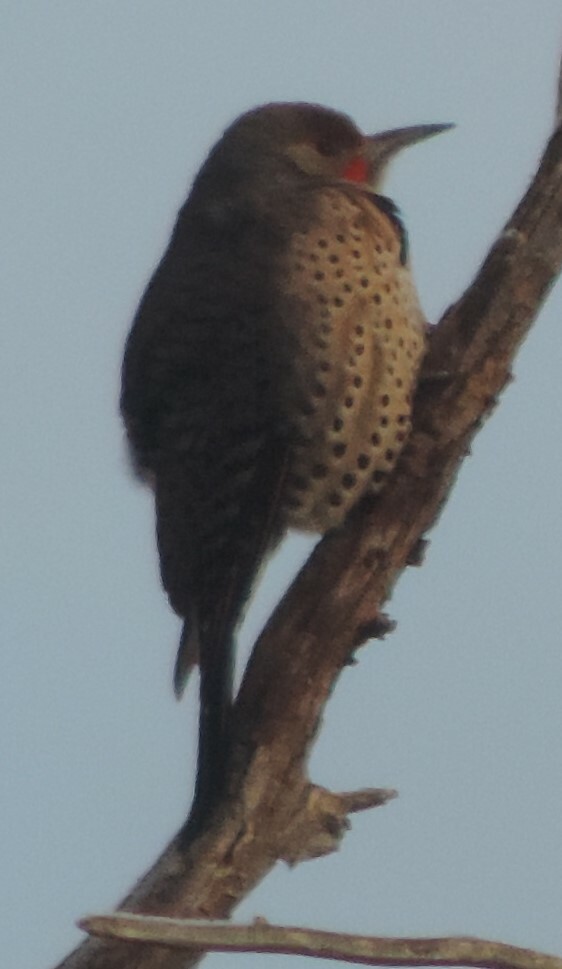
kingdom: Animalia
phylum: Chordata
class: Aves
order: Piciformes
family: Picidae
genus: Colaptes
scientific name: Colaptes auratus
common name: Northern flicker
